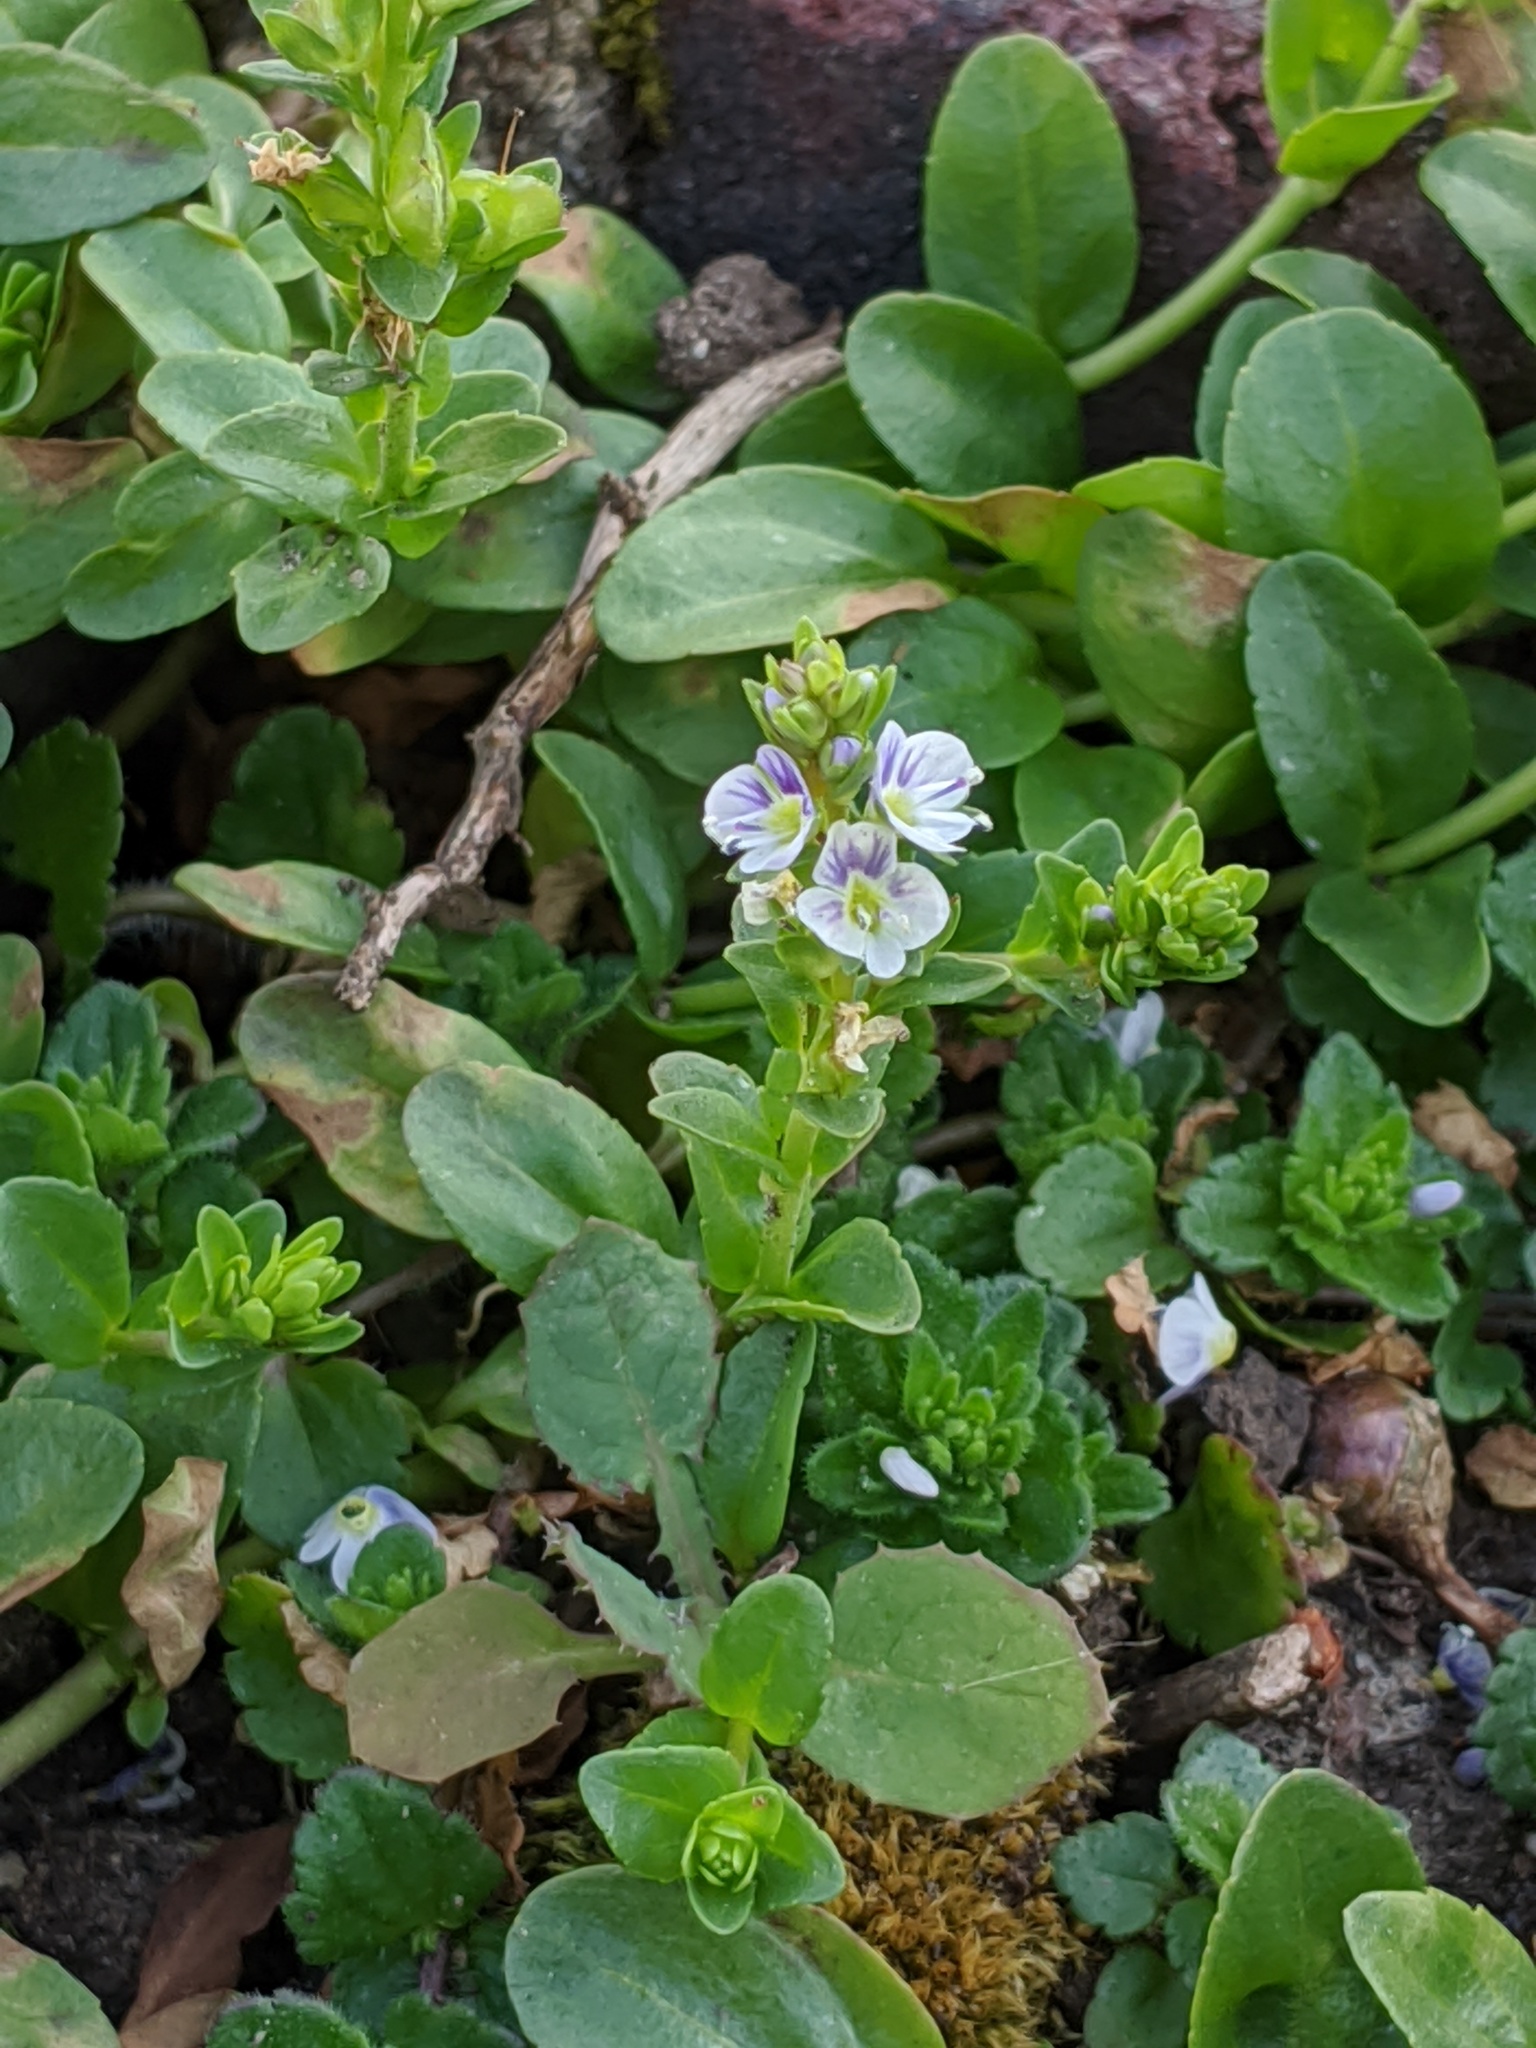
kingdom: Plantae
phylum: Tracheophyta
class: Magnoliopsida
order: Lamiales
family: Plantaginaceae
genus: Veronica
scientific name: Veronica serpyllifolia
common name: Thyme-leaved speedwell
